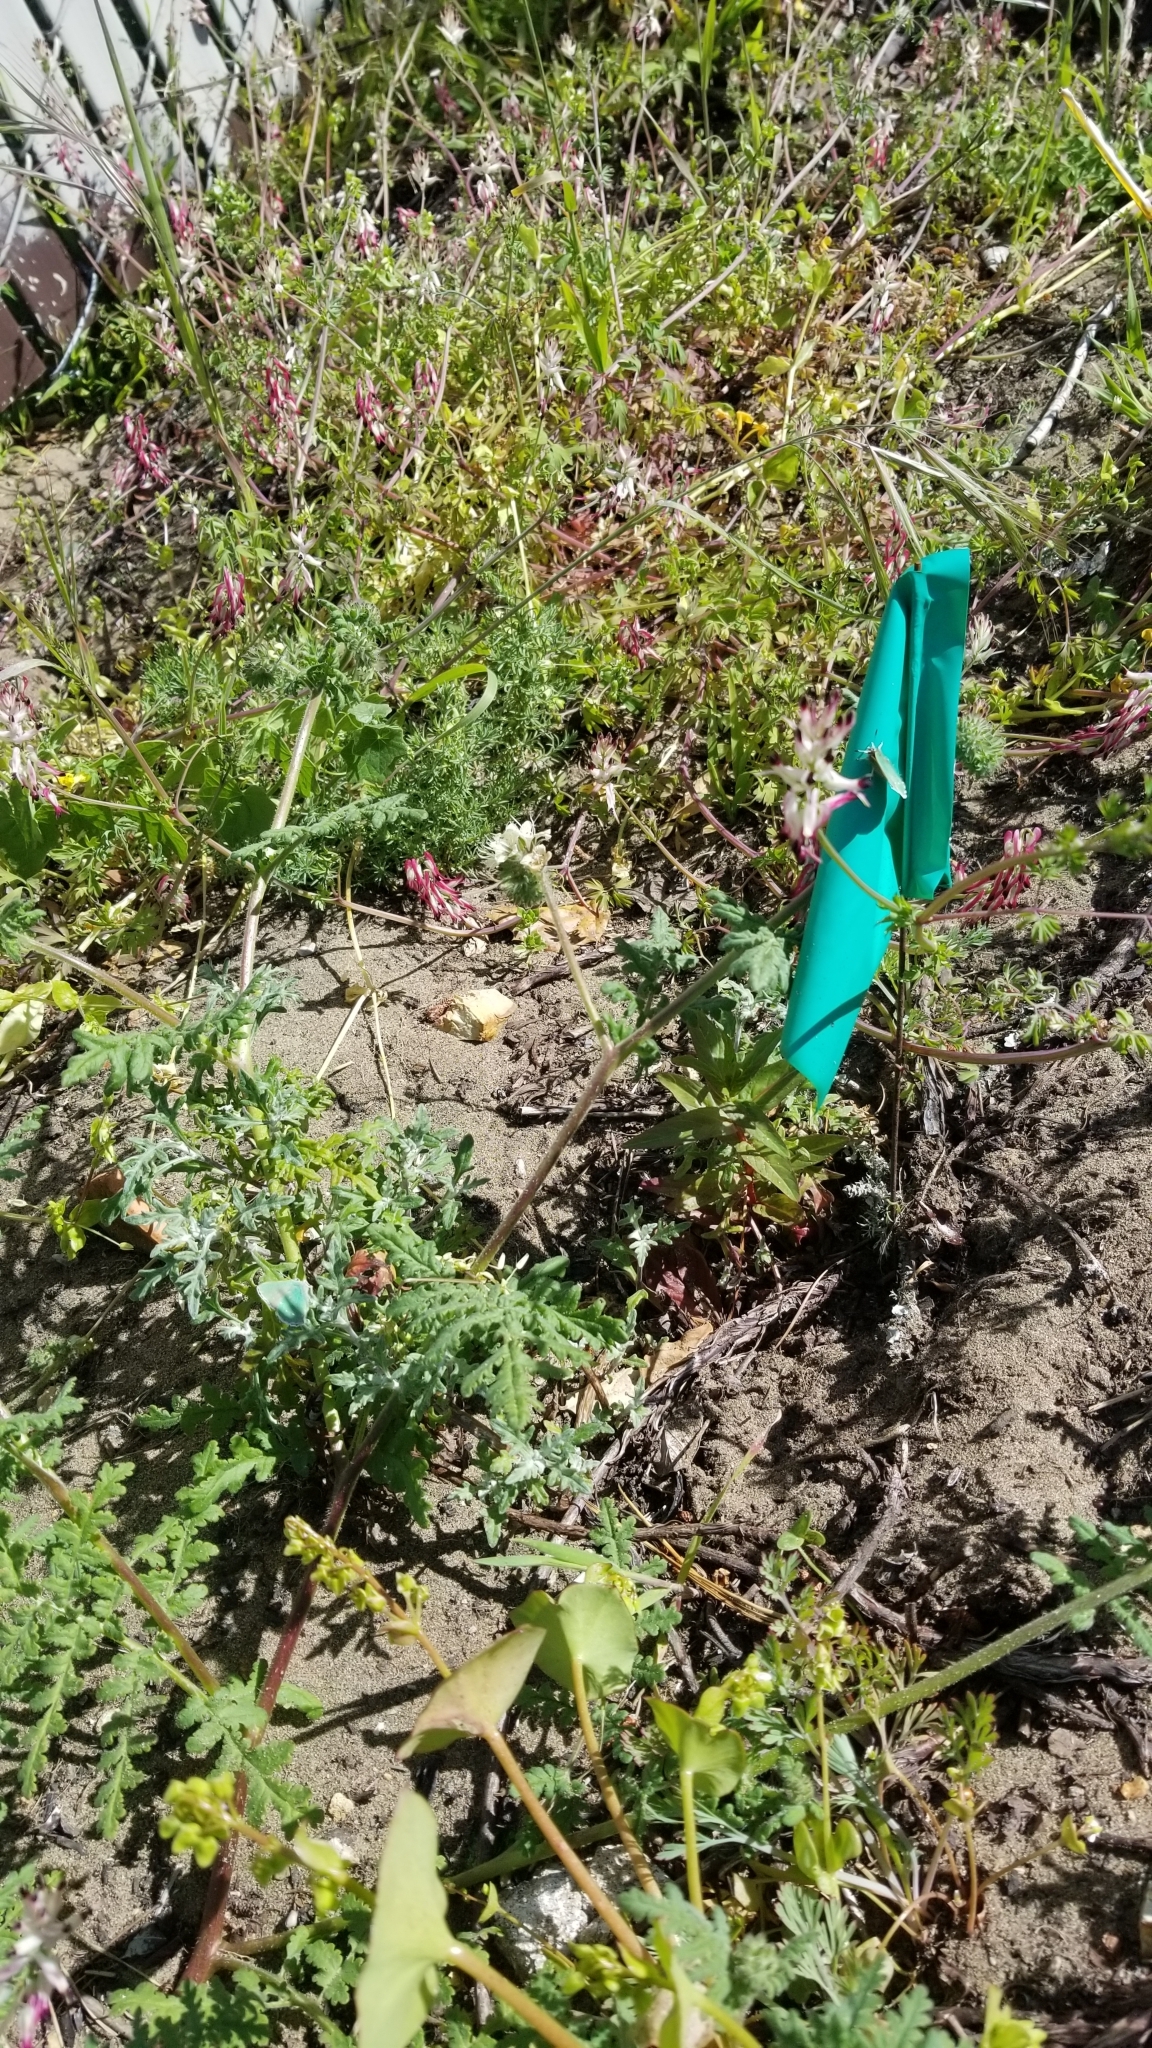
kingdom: Animalia
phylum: Arthropoda
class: Insecta
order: Lepidoptera
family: Lycaenidae
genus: Callophrys
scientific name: Callophrys viridis
